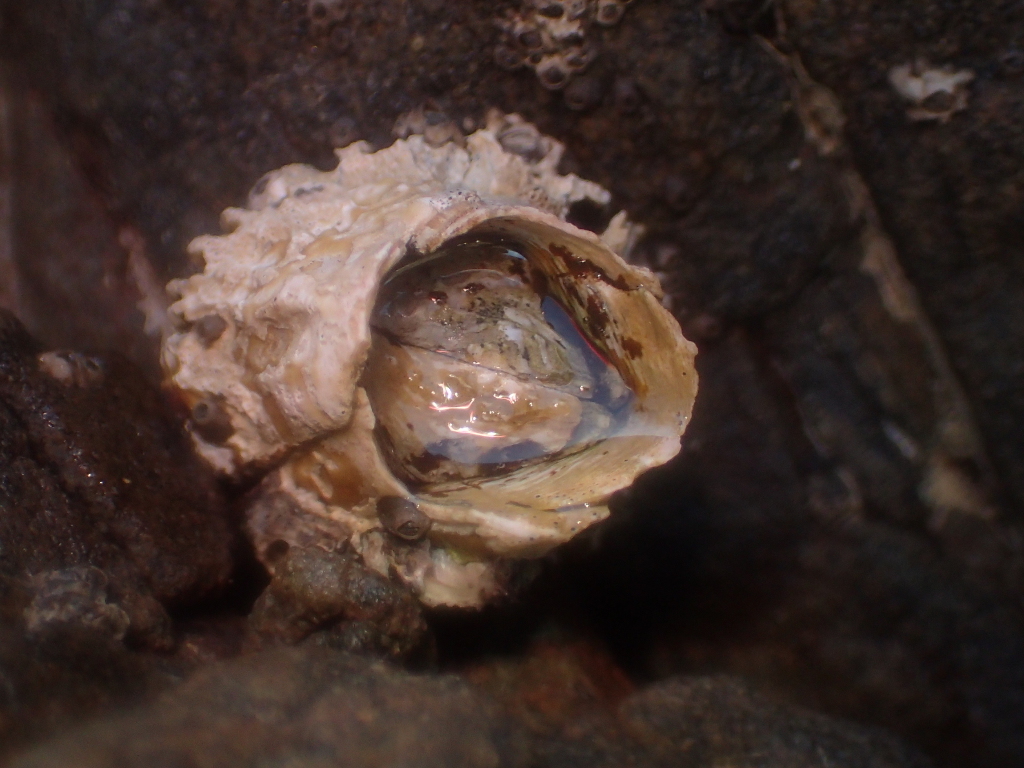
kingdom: Animalia
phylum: Arthropoda
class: Maxillopoda
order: Sessilia
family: Tetraclitidae
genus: Epopella
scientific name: Epopella plicata
